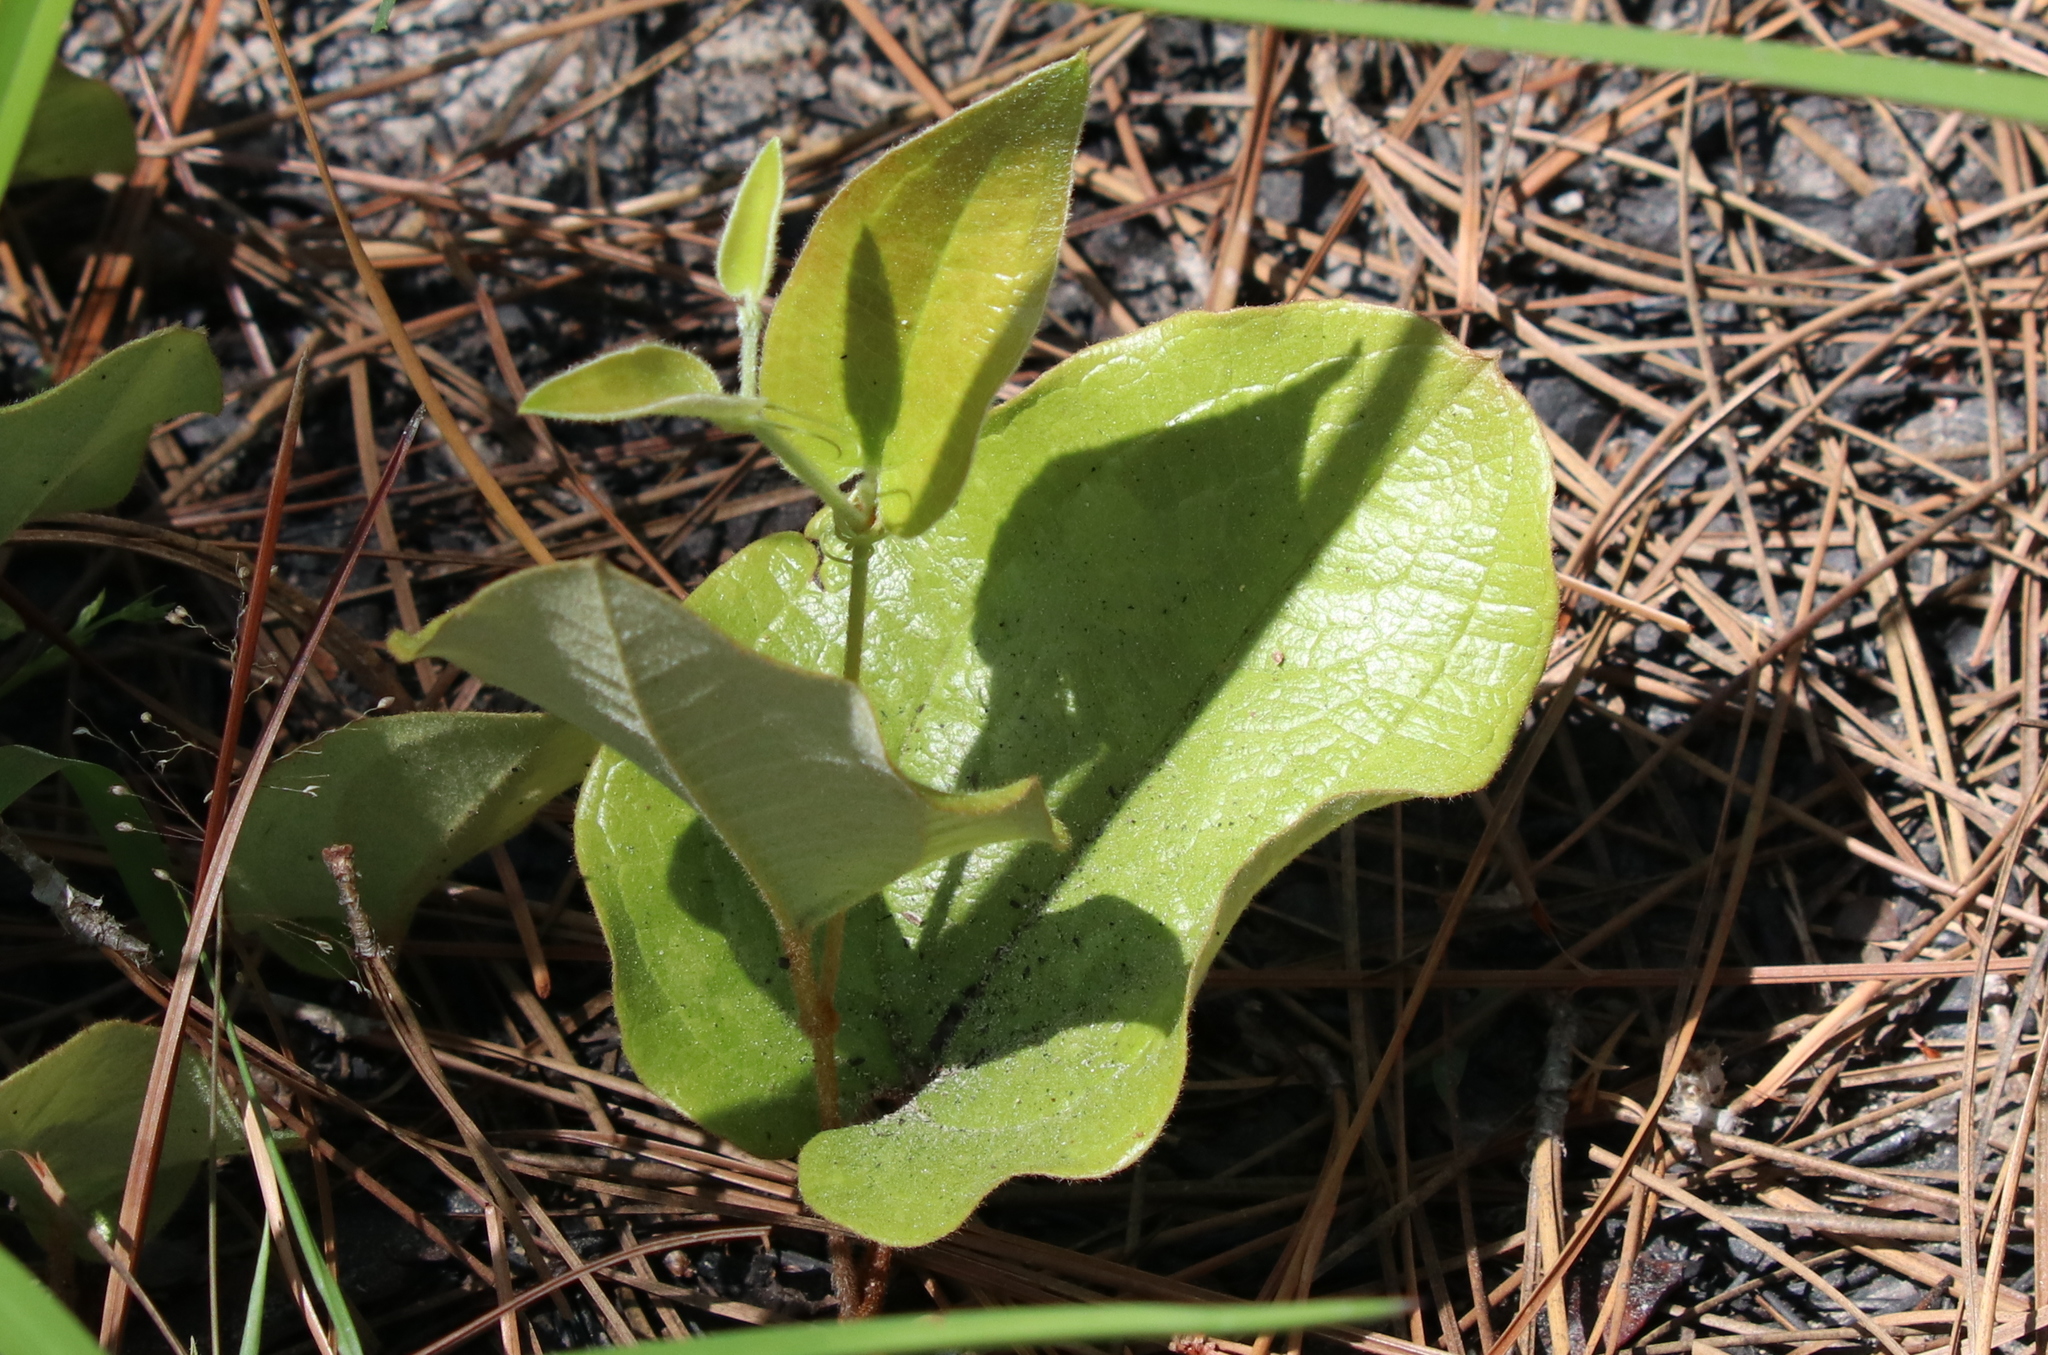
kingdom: Plantae
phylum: Tracheophyta
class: Liliopsida
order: Liliales
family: Smilacaceae
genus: Smilax
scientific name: Smilax pumila
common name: Sarsaparilla-vine
